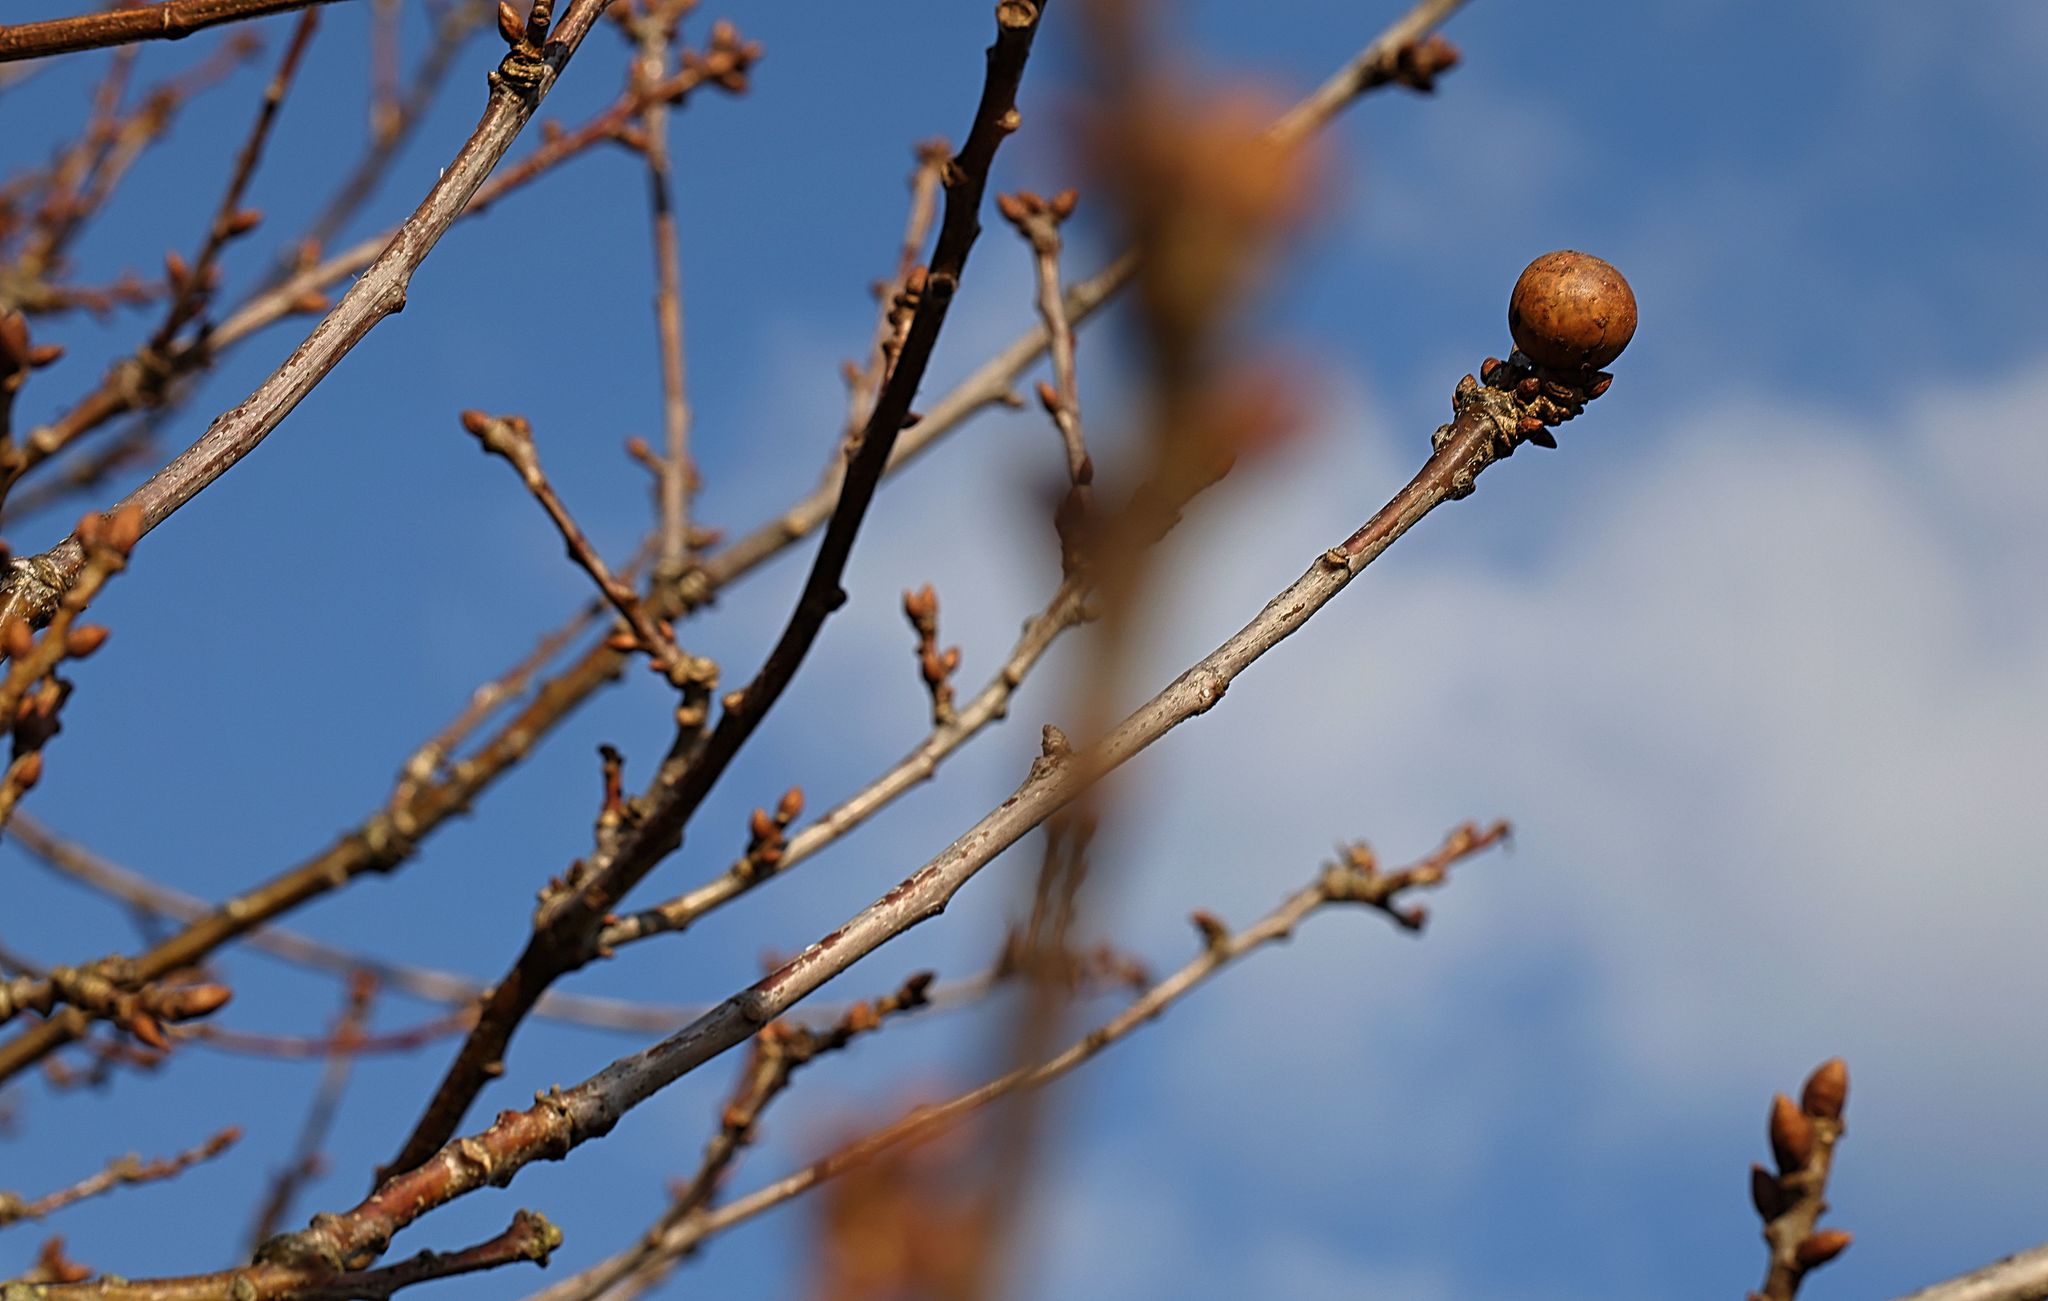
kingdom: Animalia
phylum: Arthropoda
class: Insecta
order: Hymenoptera
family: Cynipidae
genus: Andricus
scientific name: Andricus kollari
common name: Marble gall
